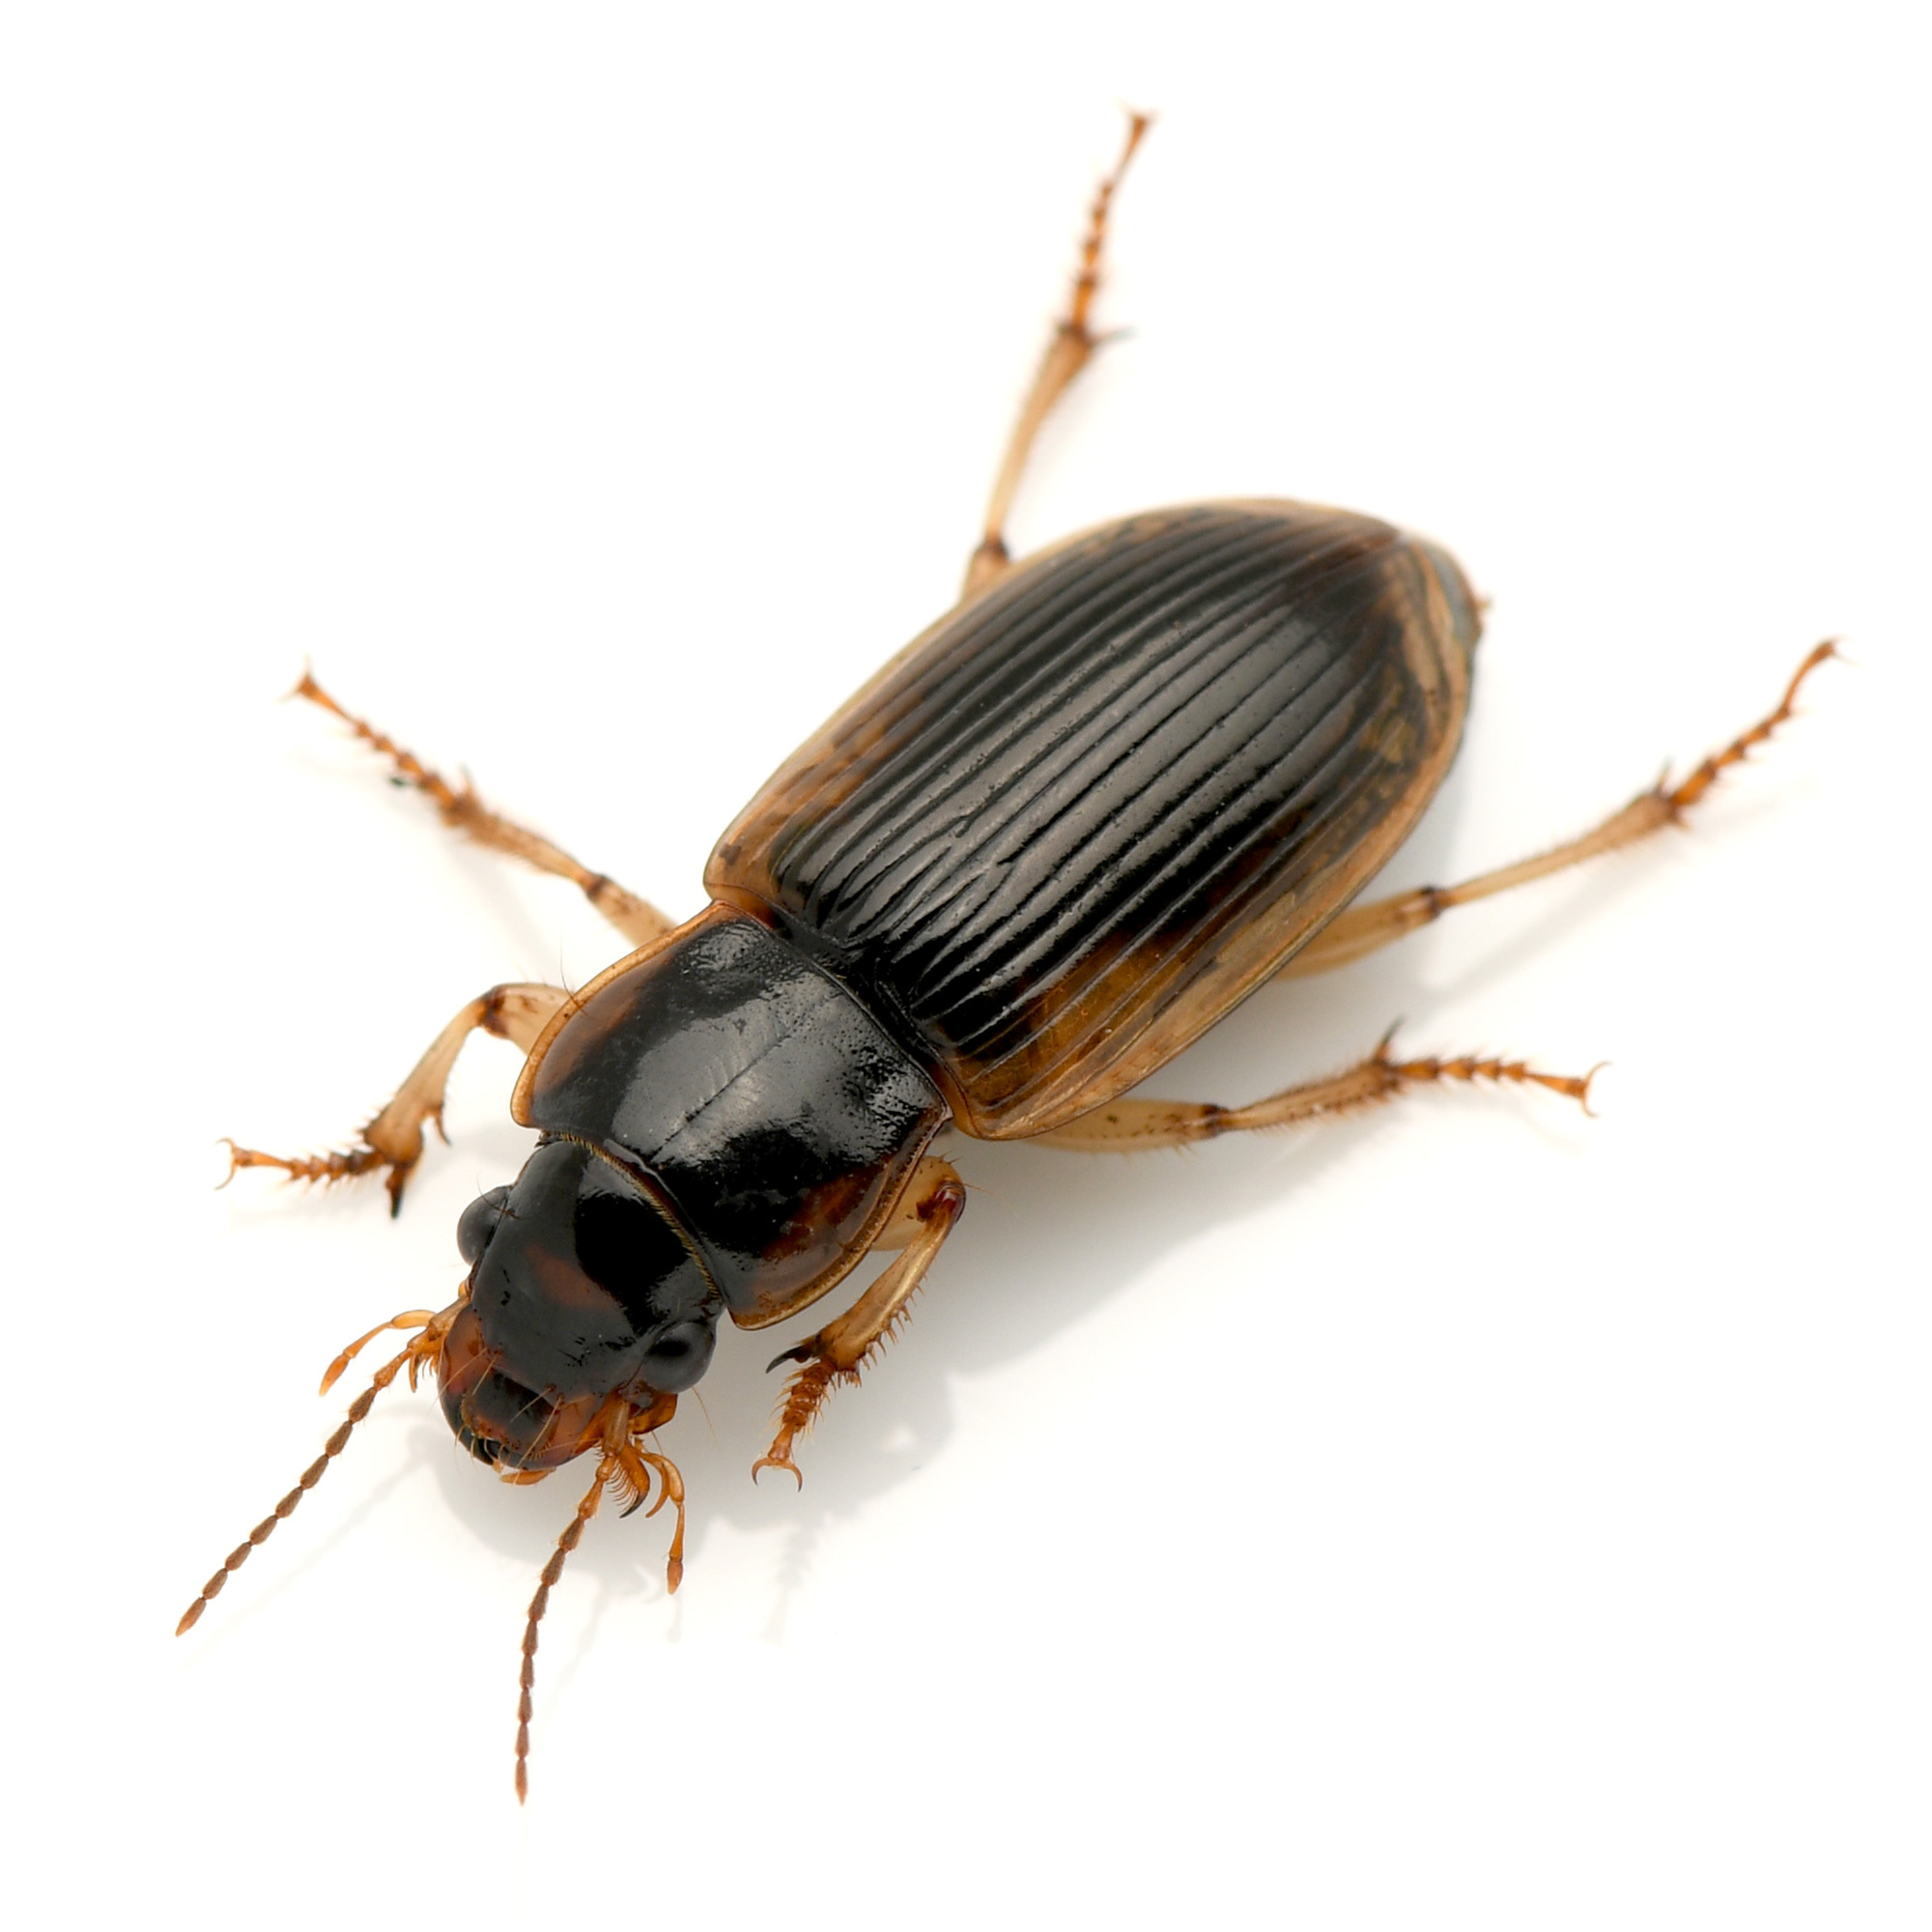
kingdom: Animalia
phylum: Arthropoda
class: Insecta
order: Coleoptera
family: Carabidae
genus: Anisodactylus
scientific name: Anisodactylus discoideus
